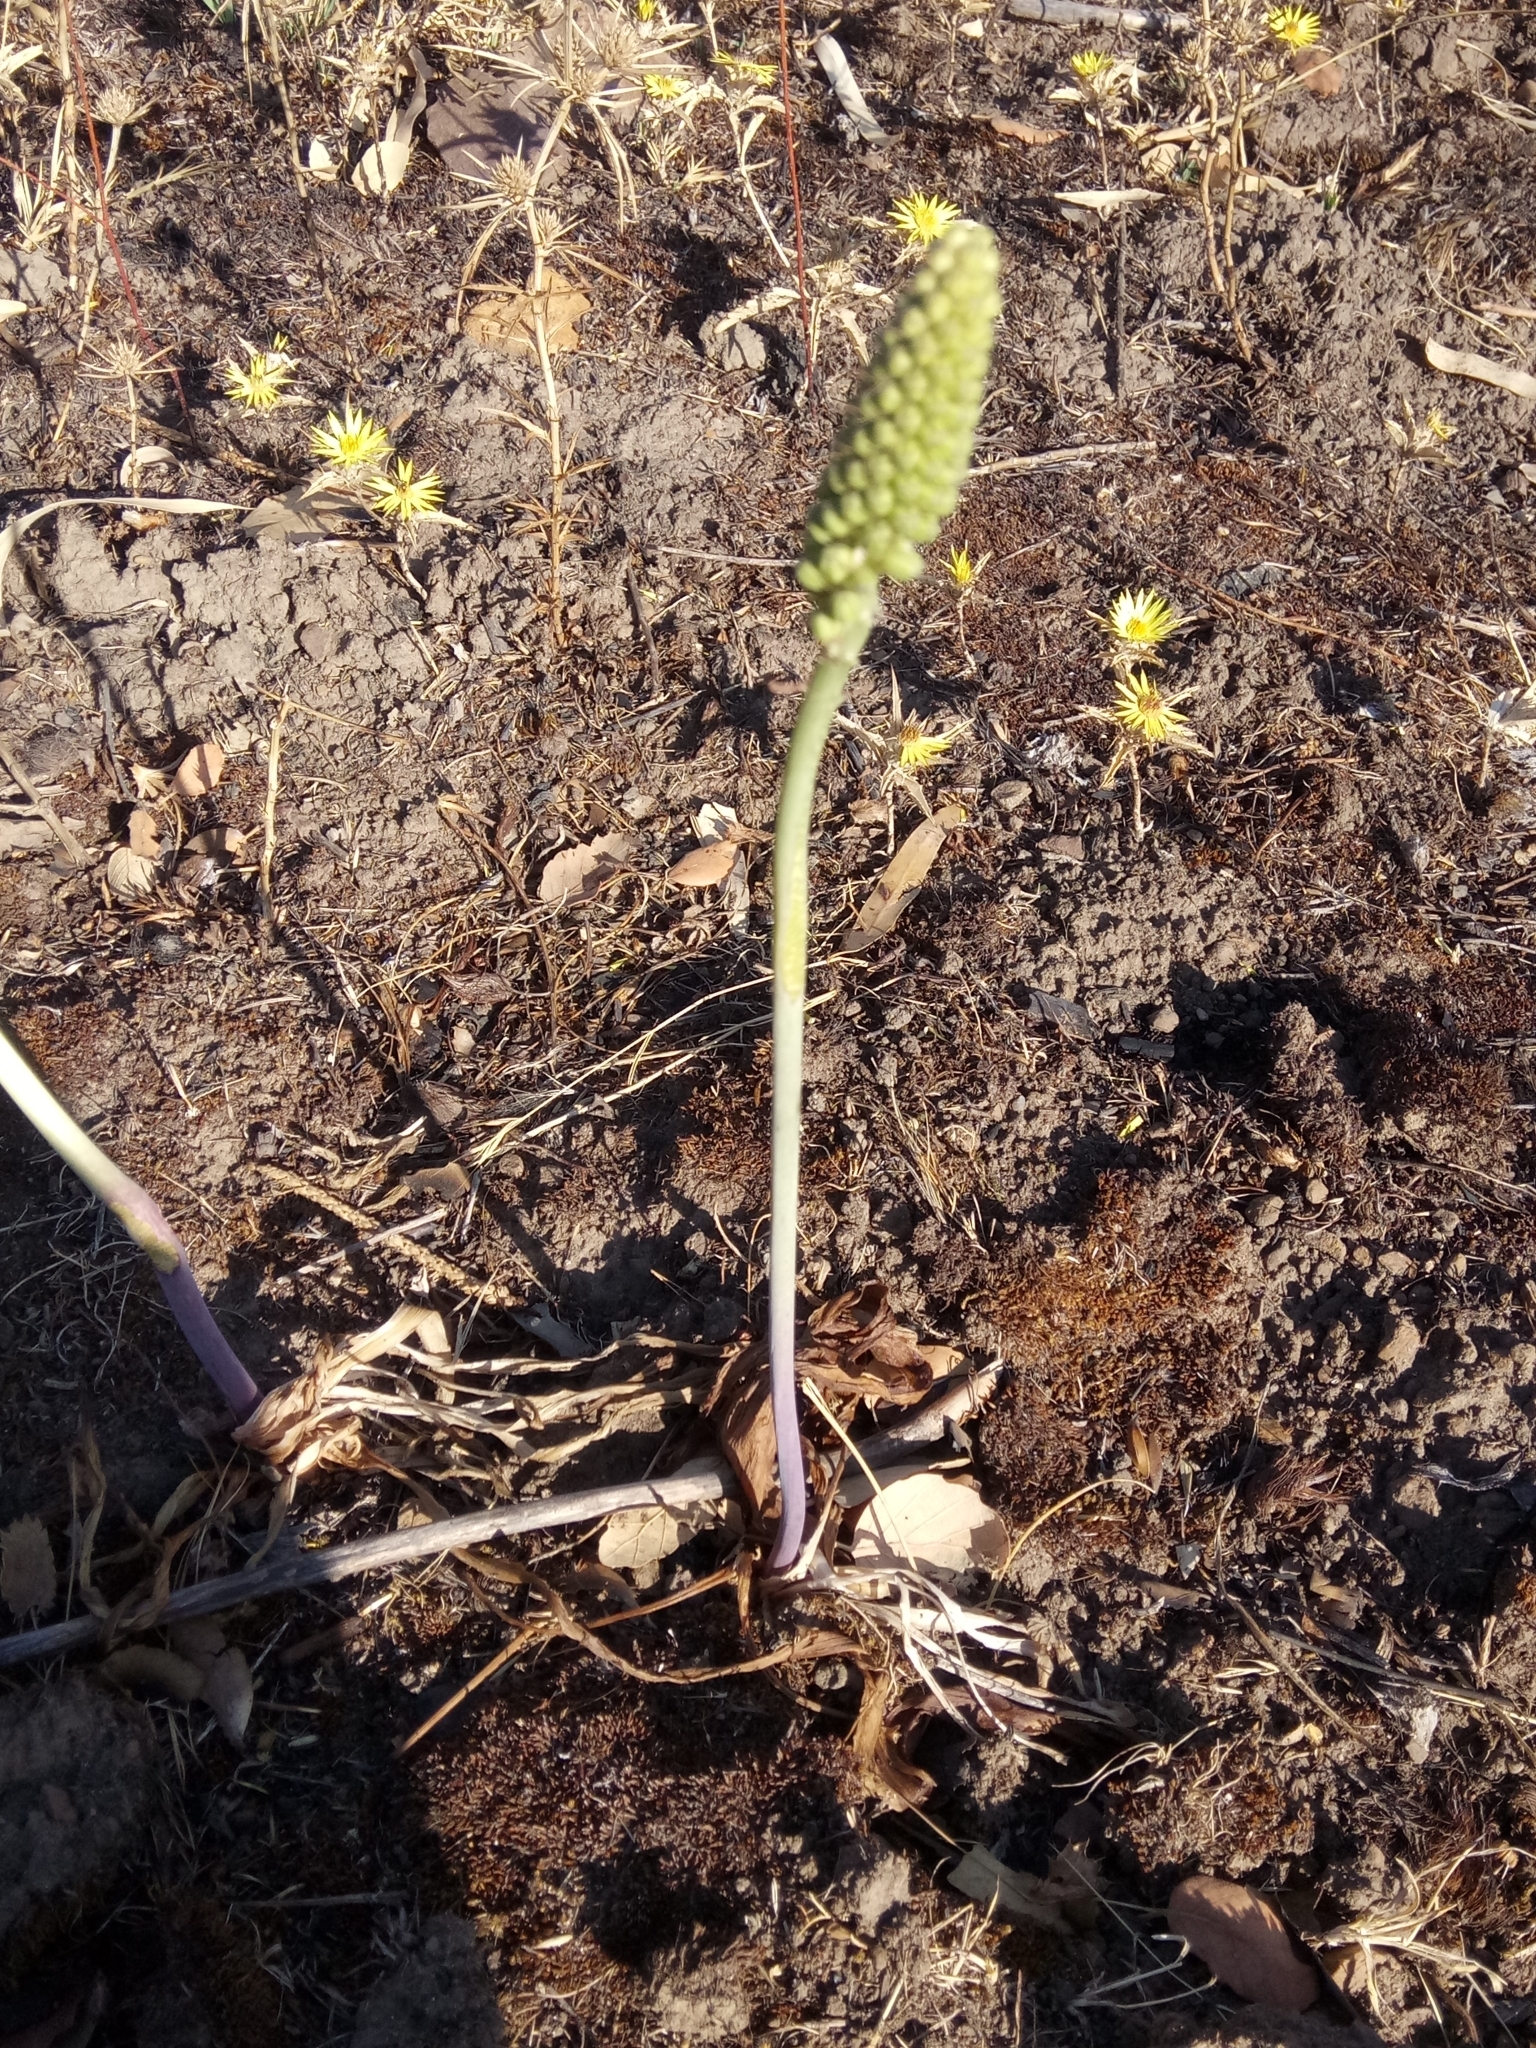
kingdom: Plantae
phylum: Tracheophyta
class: Liliopsida
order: Asparagales
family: Asparagaceae
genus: Drimia
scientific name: Drimia anthericoides
